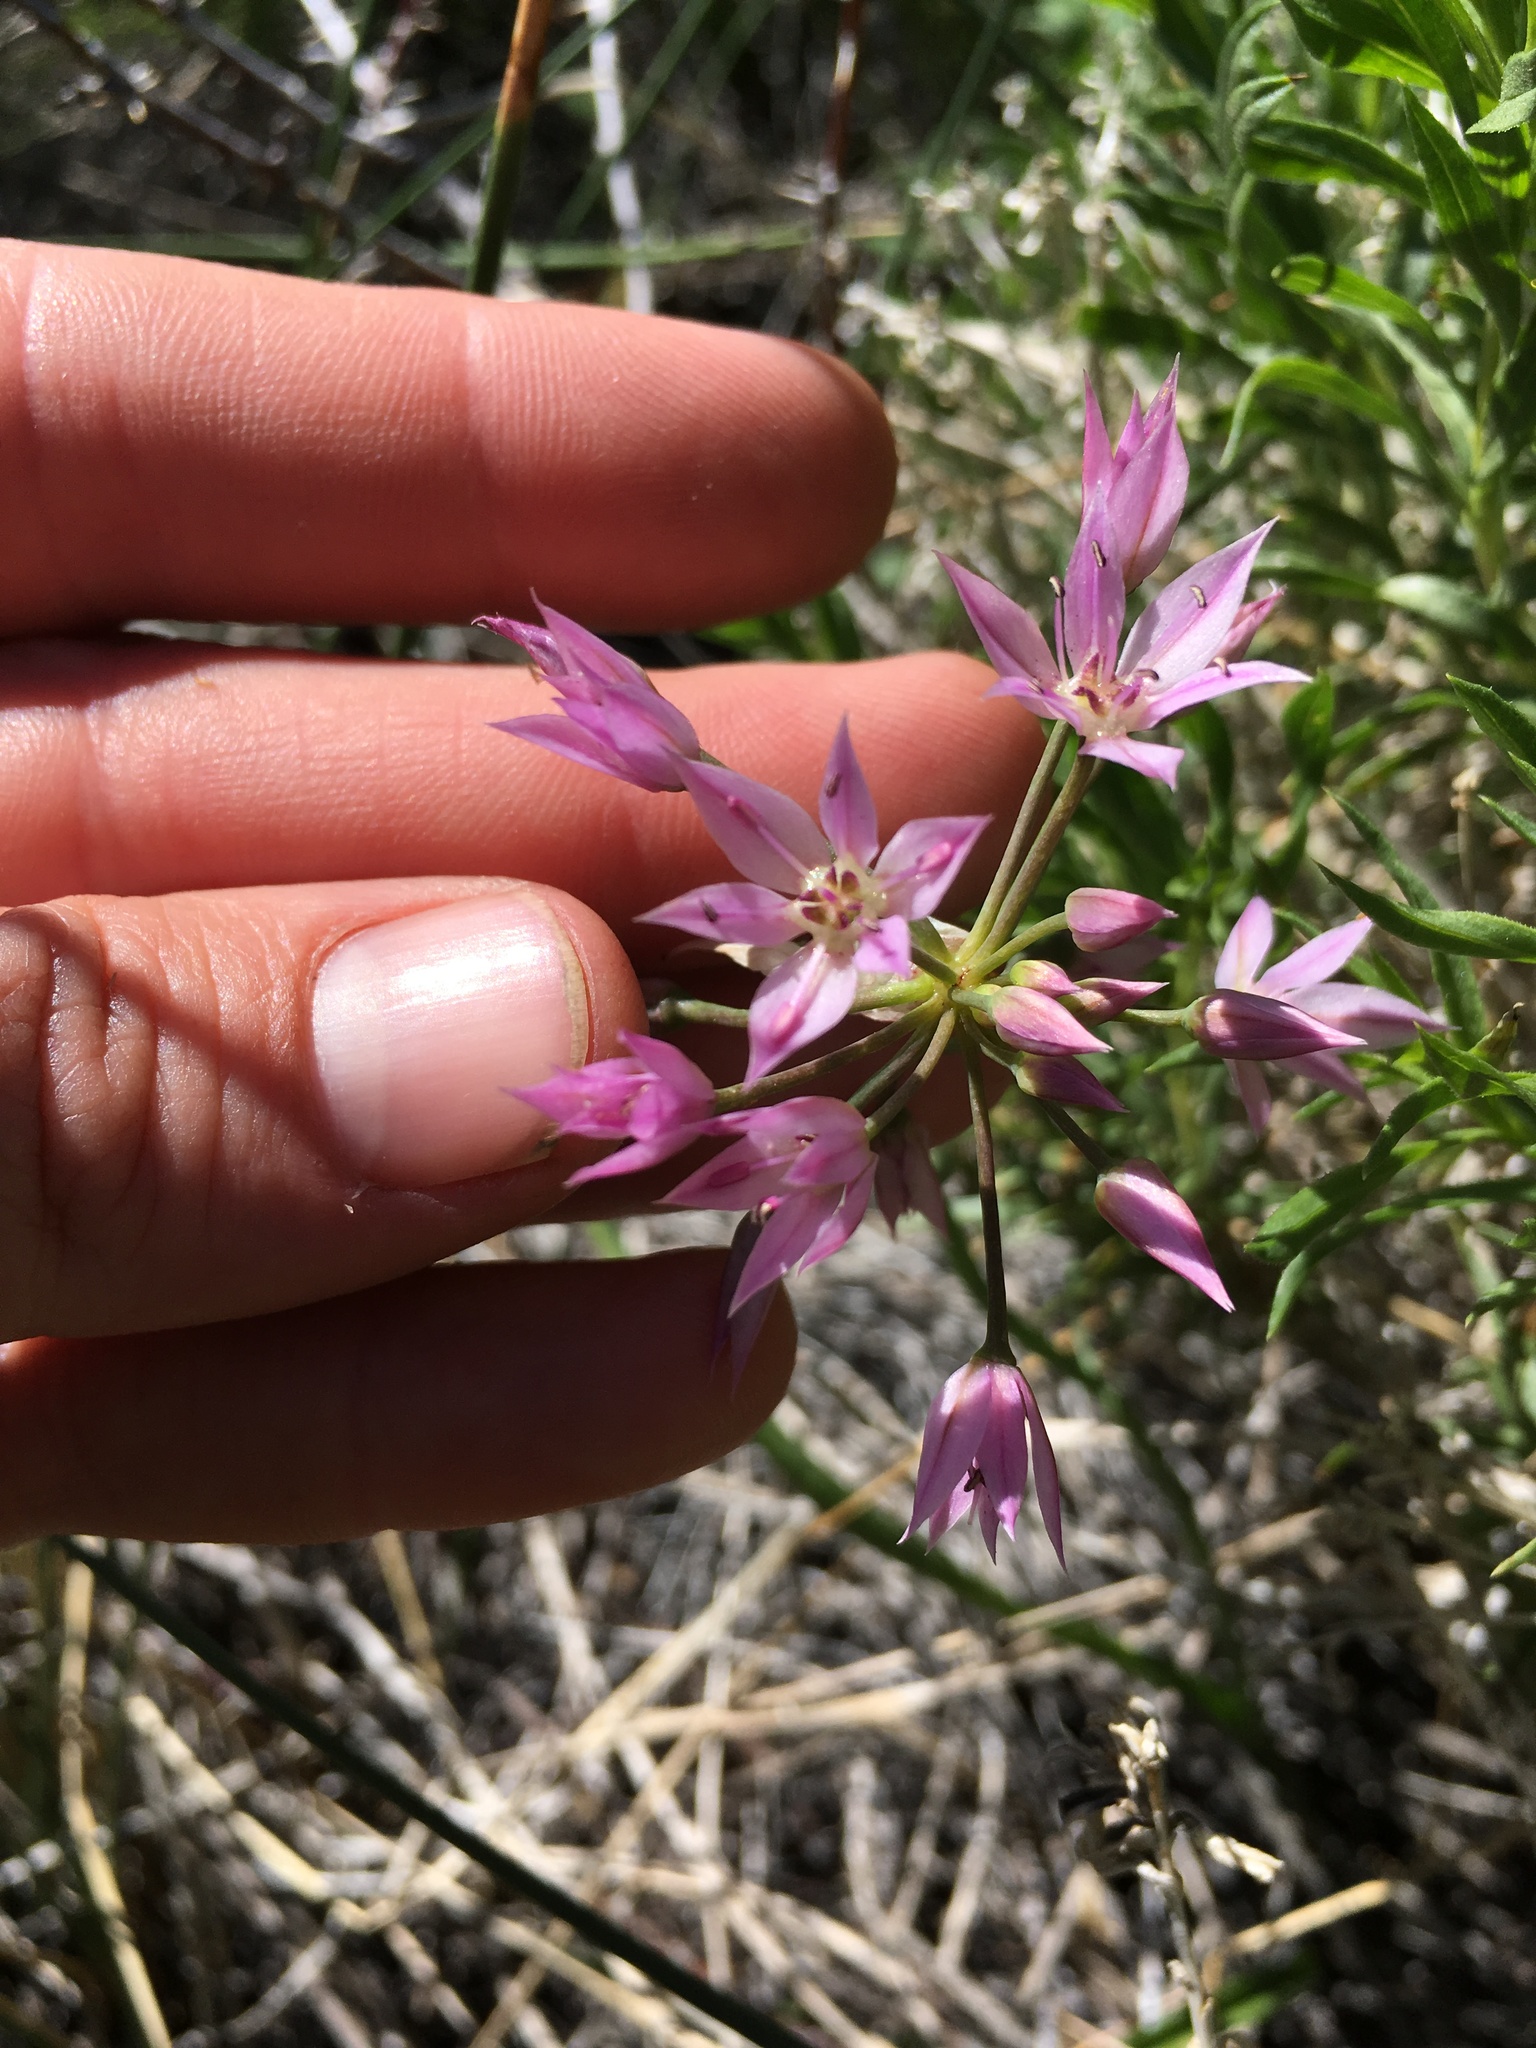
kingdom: Plantae
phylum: Tracheophyta
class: Liliopsida
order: Asparagales
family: Amaryllidaceae
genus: Allium
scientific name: Allium bisceptrum
